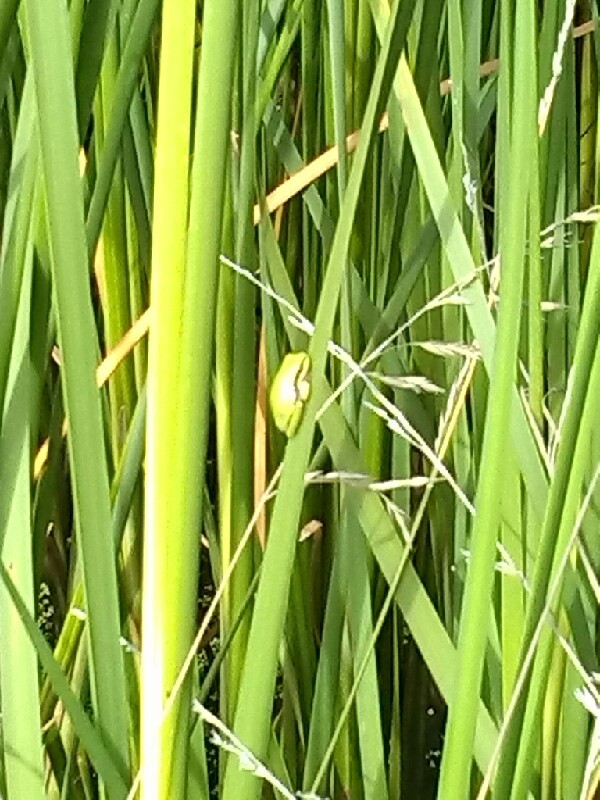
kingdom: Animalia
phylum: Chordata
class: Amphibia
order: Anura
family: Hylidae
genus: Hyla
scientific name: Hyla meridionalis
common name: Stripeless tree frog
